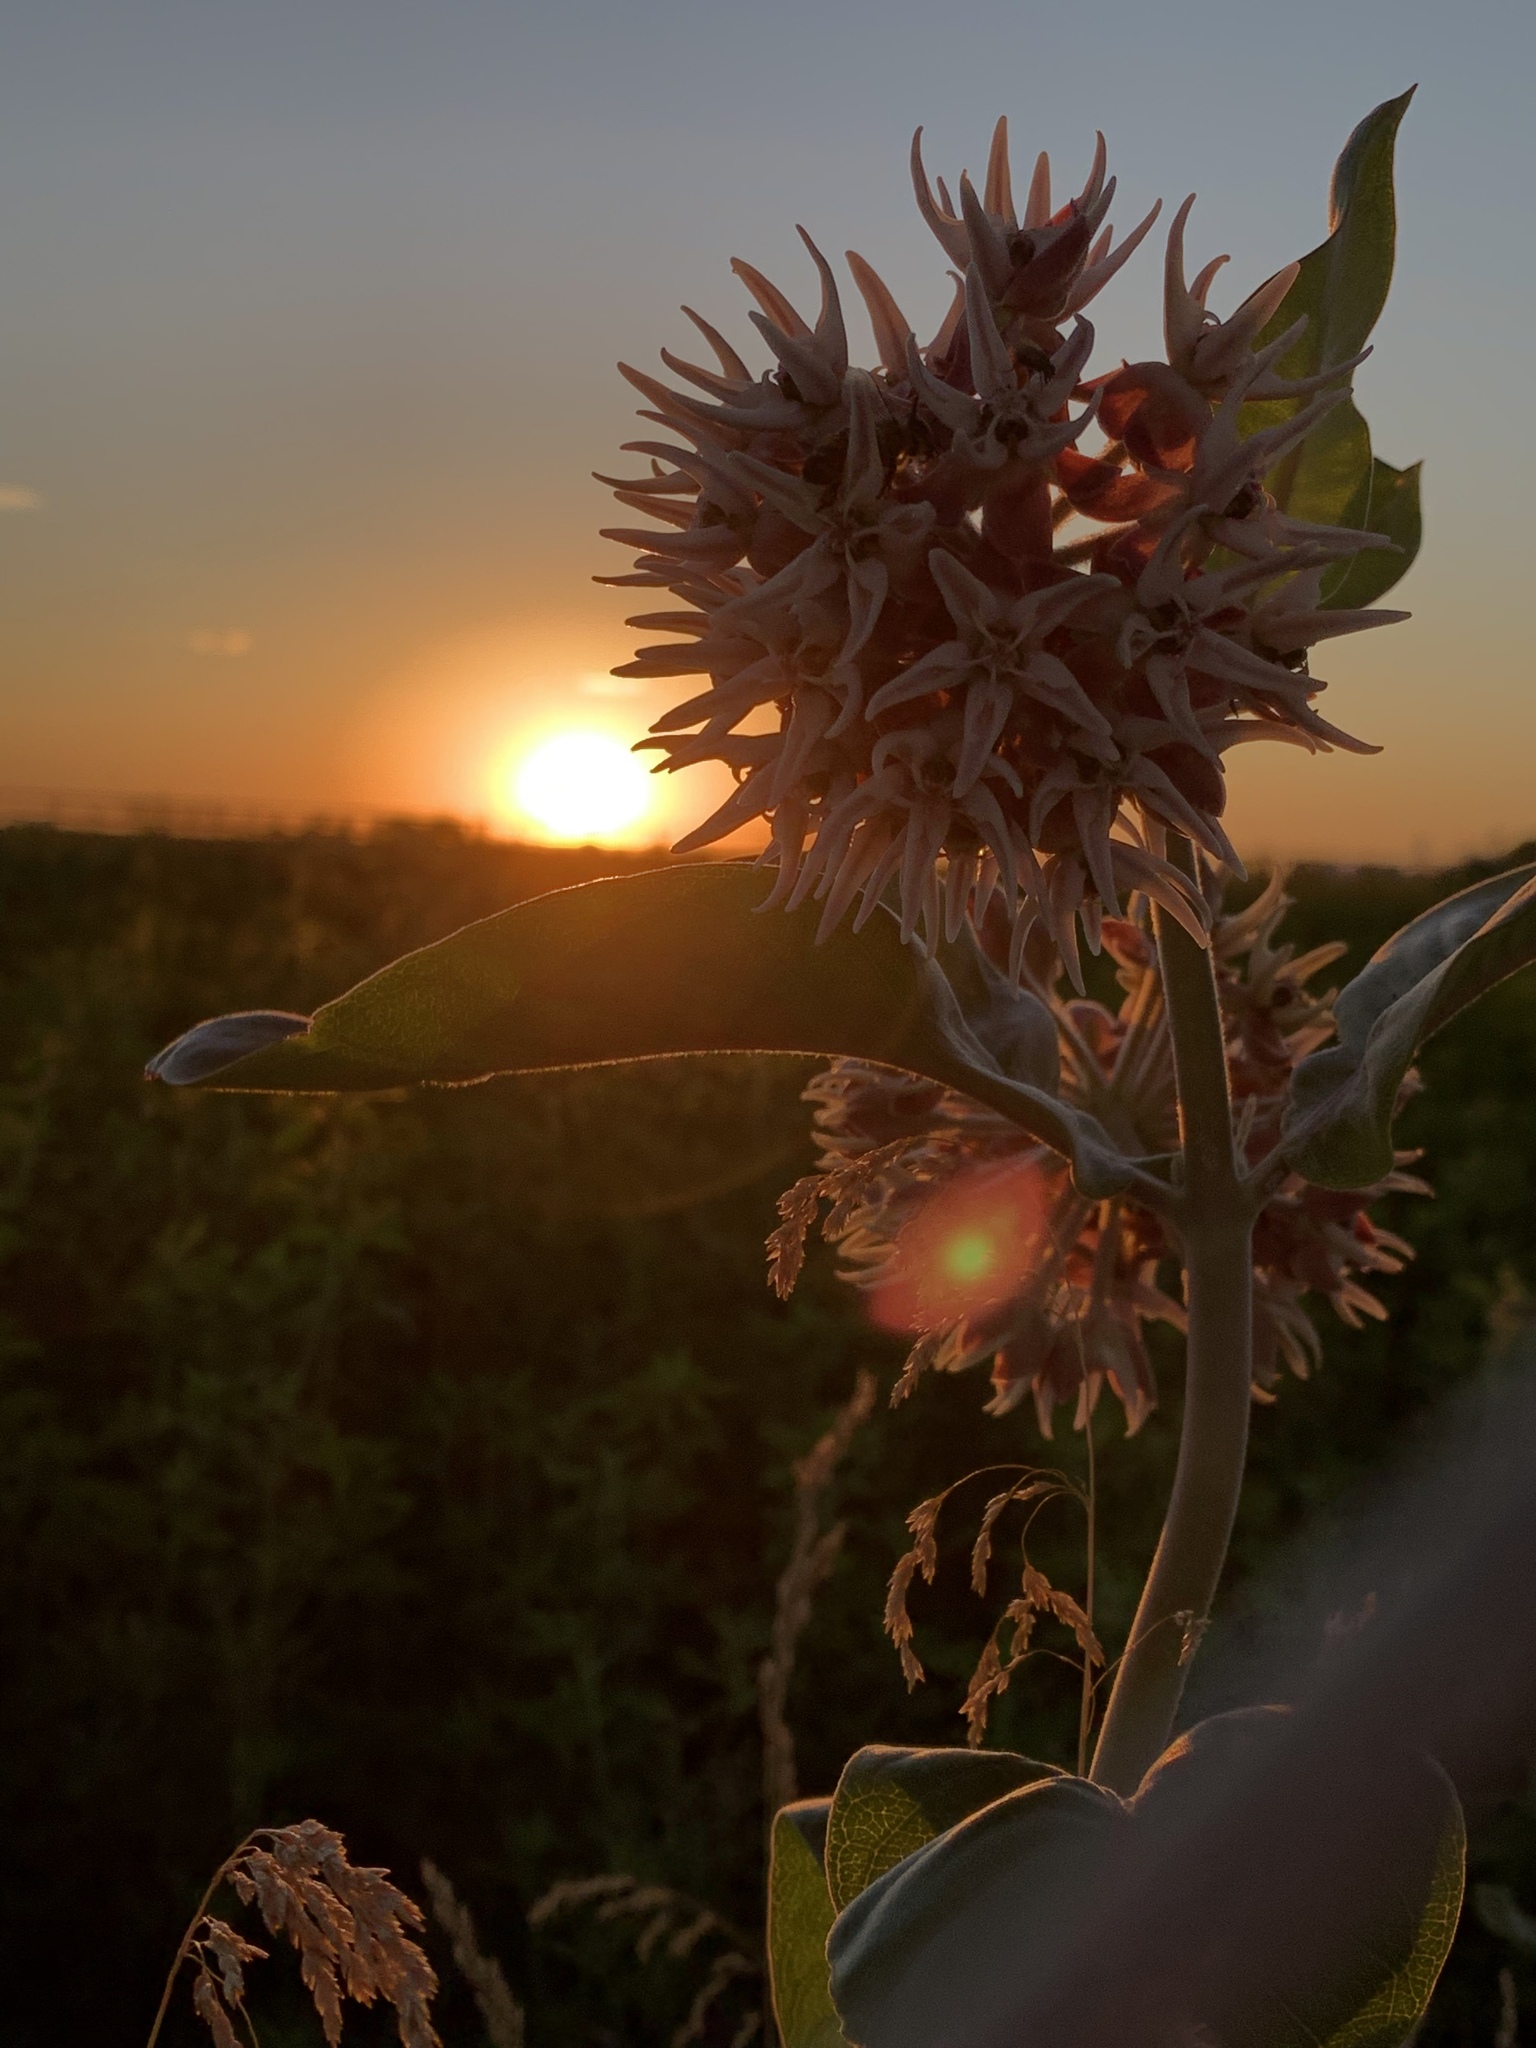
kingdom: Plantae
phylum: Tracheophyta
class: Magnoliopsida
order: Gentianales
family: Apocynaceae
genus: Asclepias
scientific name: Asclepias speciosa
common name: Showy milkweed
